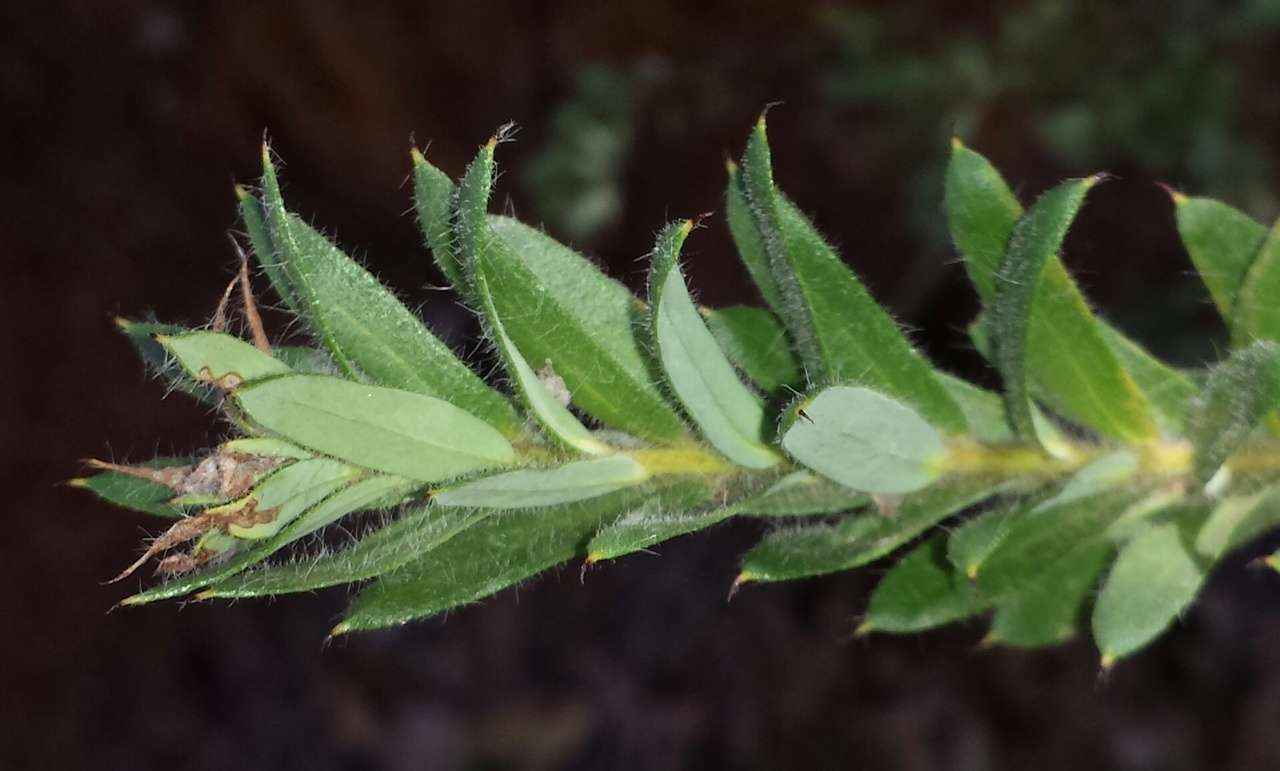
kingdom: Plantae
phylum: Tracheophyta
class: Magnoliopsida
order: Proteales
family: Proteaceae
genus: Grevillea
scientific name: Grevillea jephcottii
